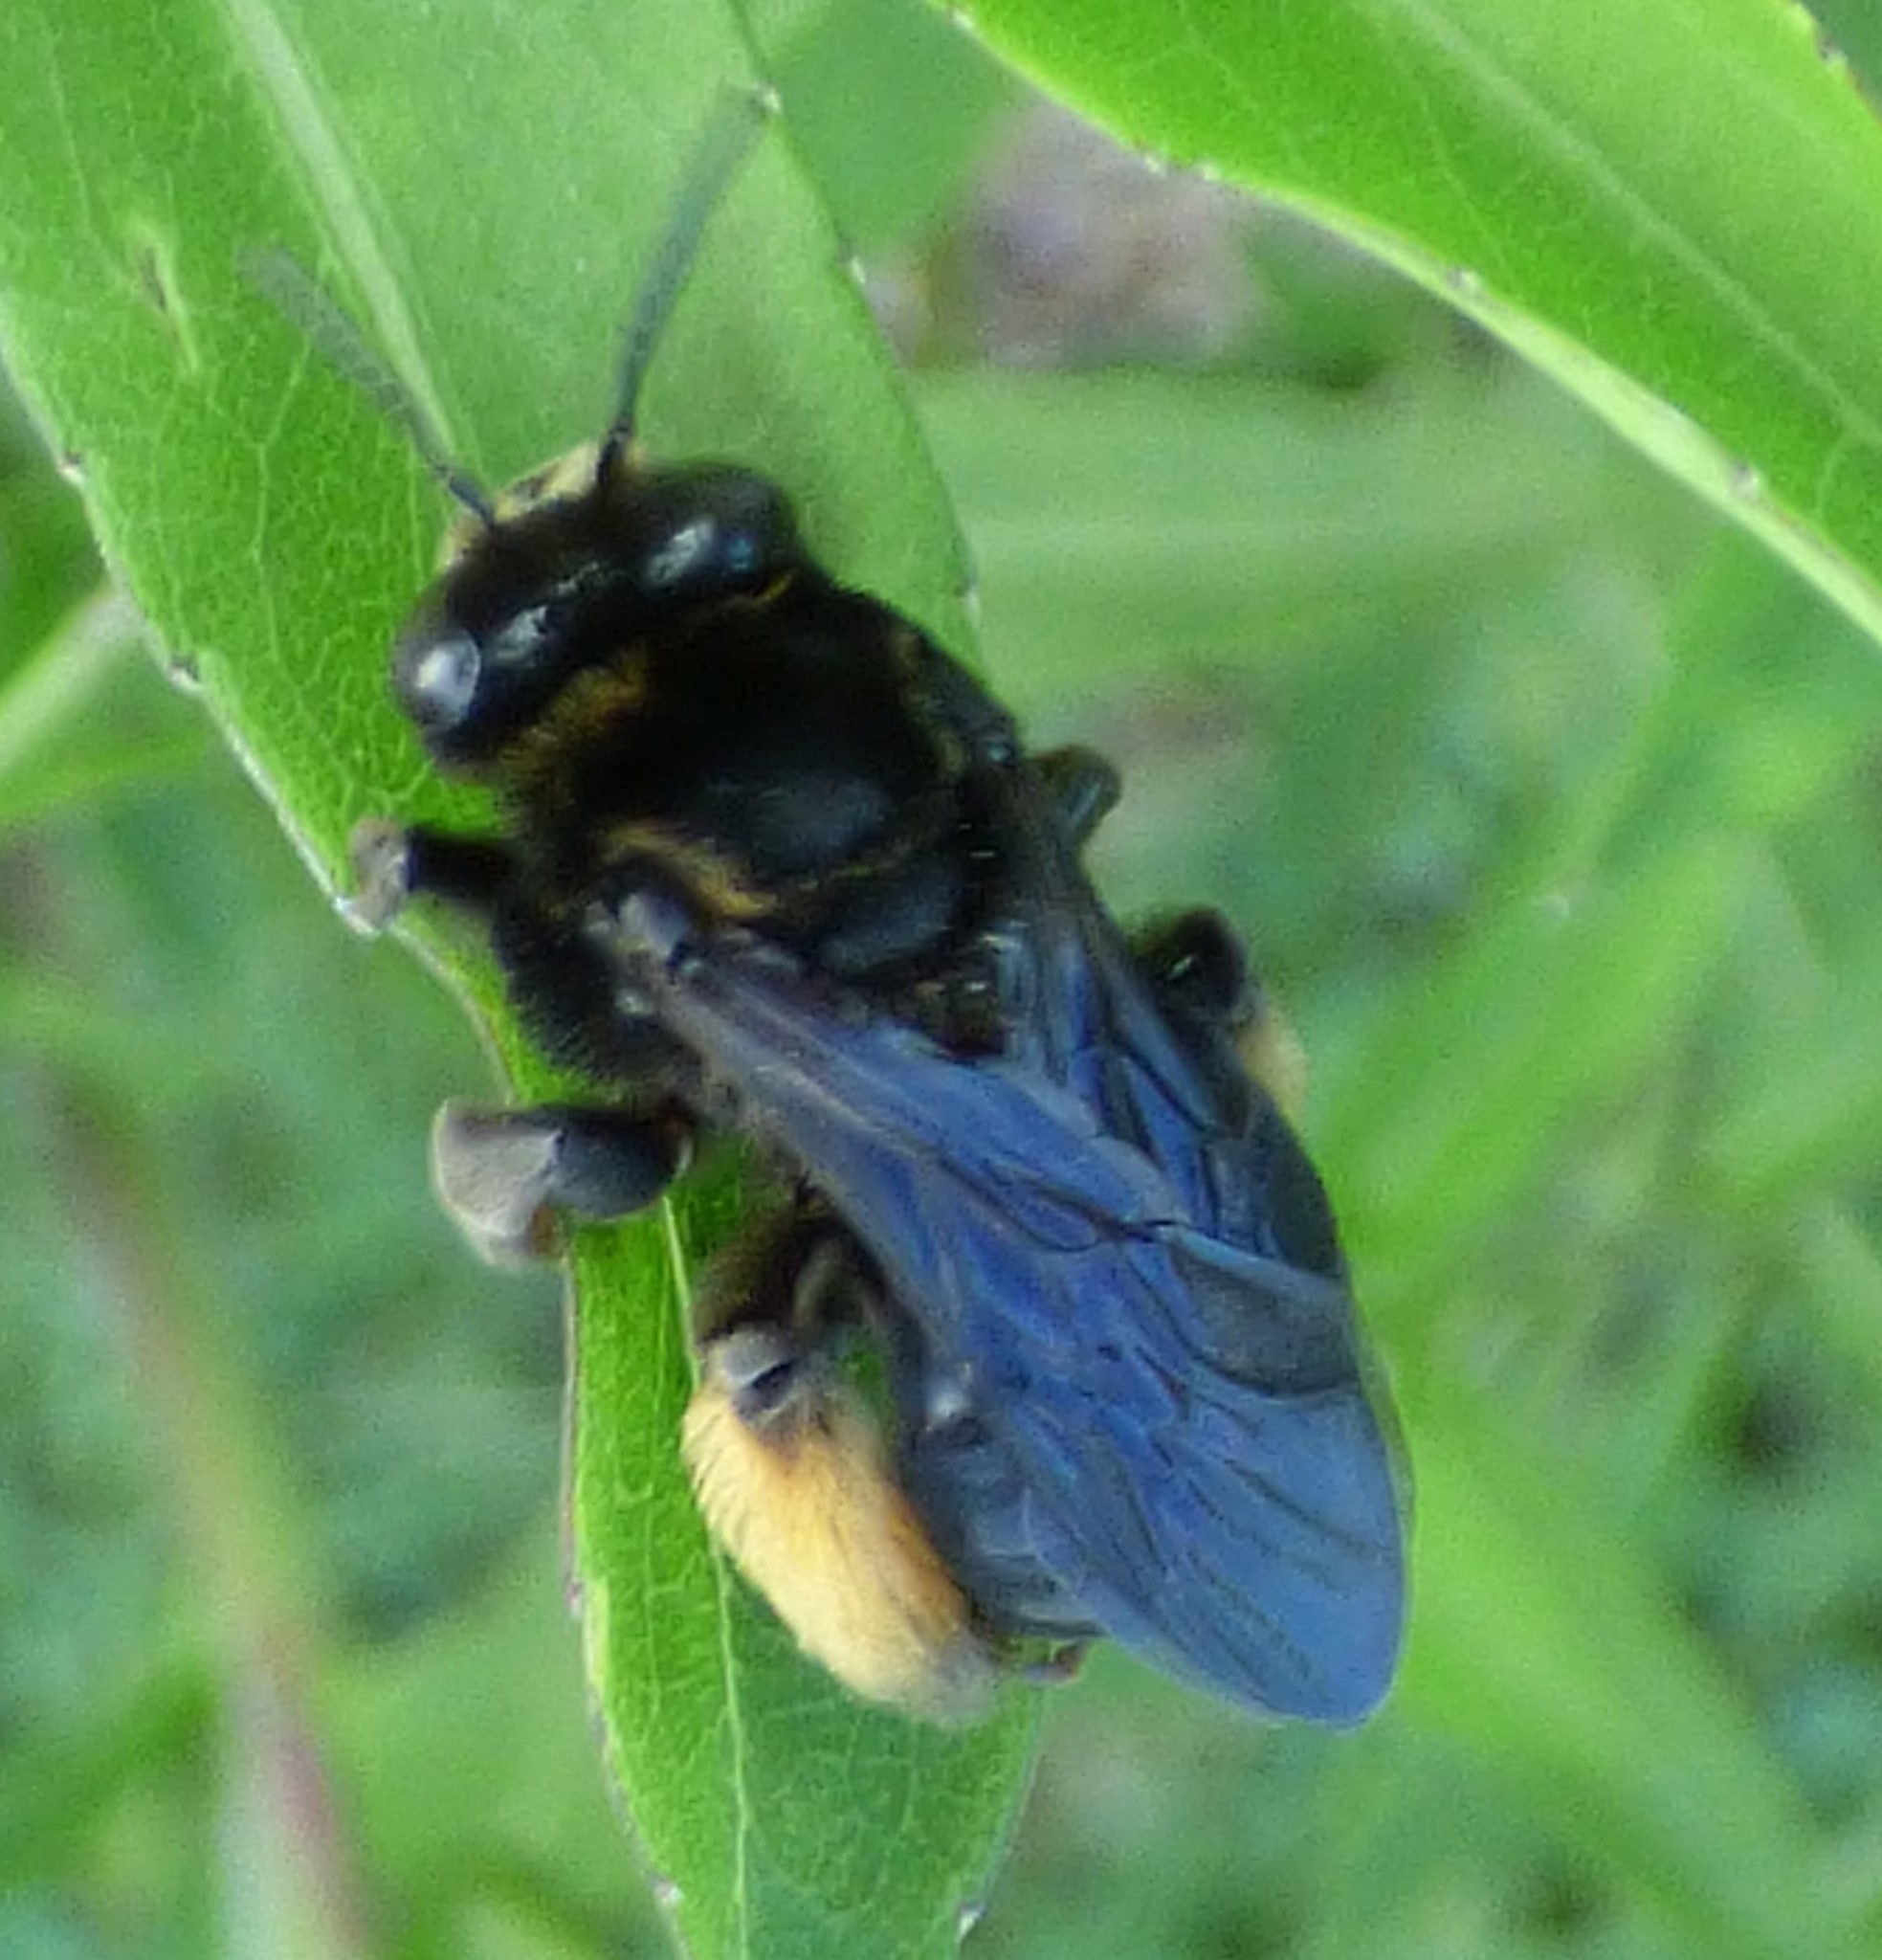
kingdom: Animalia
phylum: Arthropoda
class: Insecta
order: Hymenoptera
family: Apidae
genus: Melissodes
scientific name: Melissodes bimaculatus
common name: Two-spotted long-horned bee
